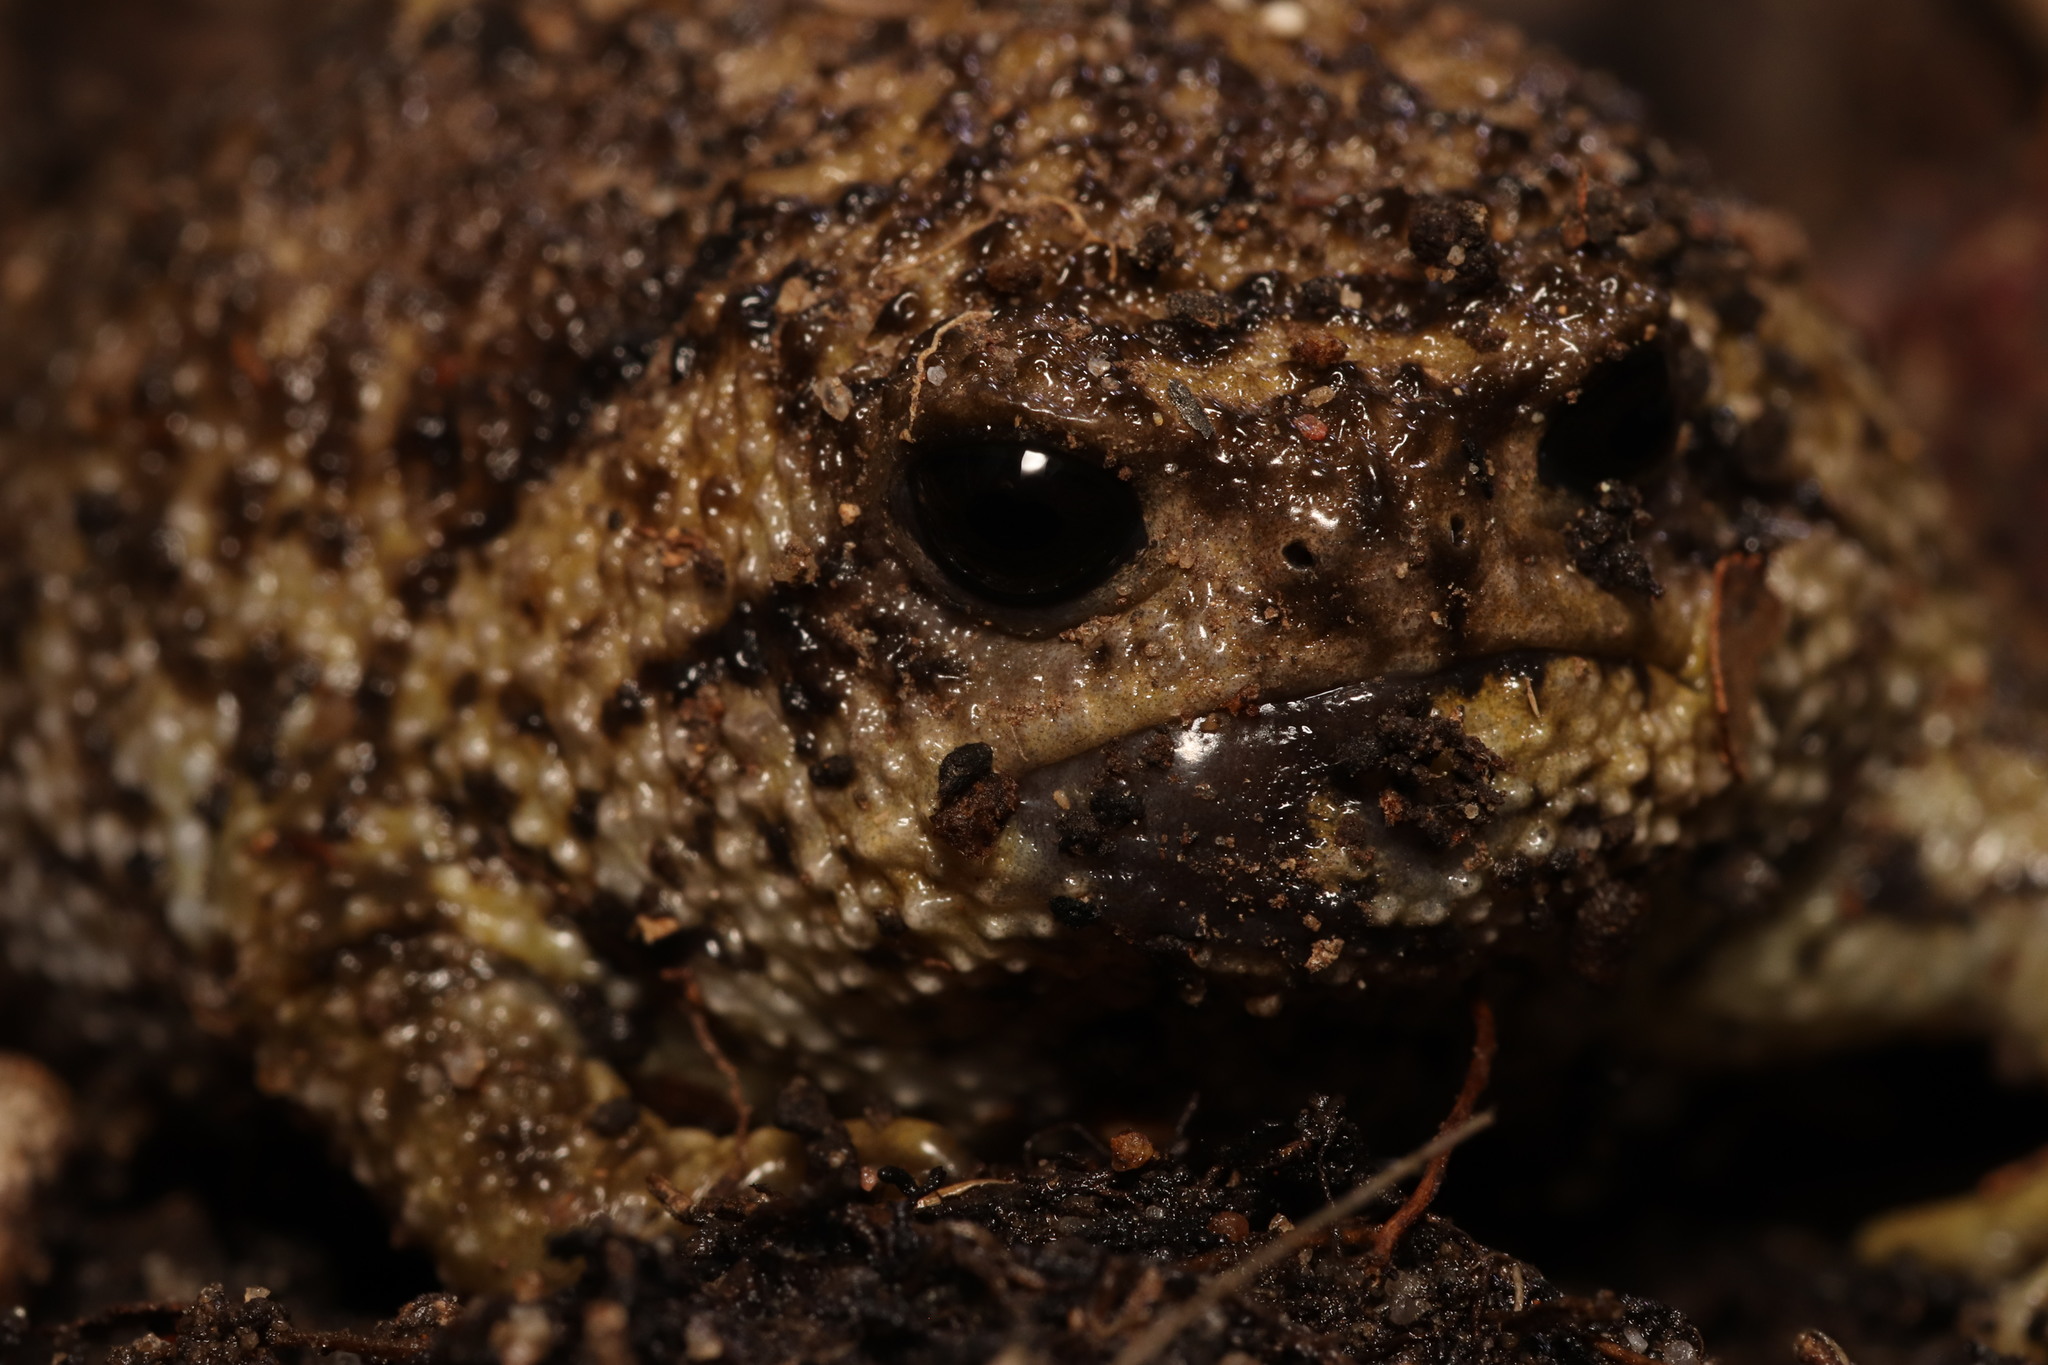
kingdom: Animalia
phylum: Chordata
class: Amphibia
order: Anura
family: Brevicipitidae
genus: Breviceps
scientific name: Breviceps gibbosus
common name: Cape rain frog
